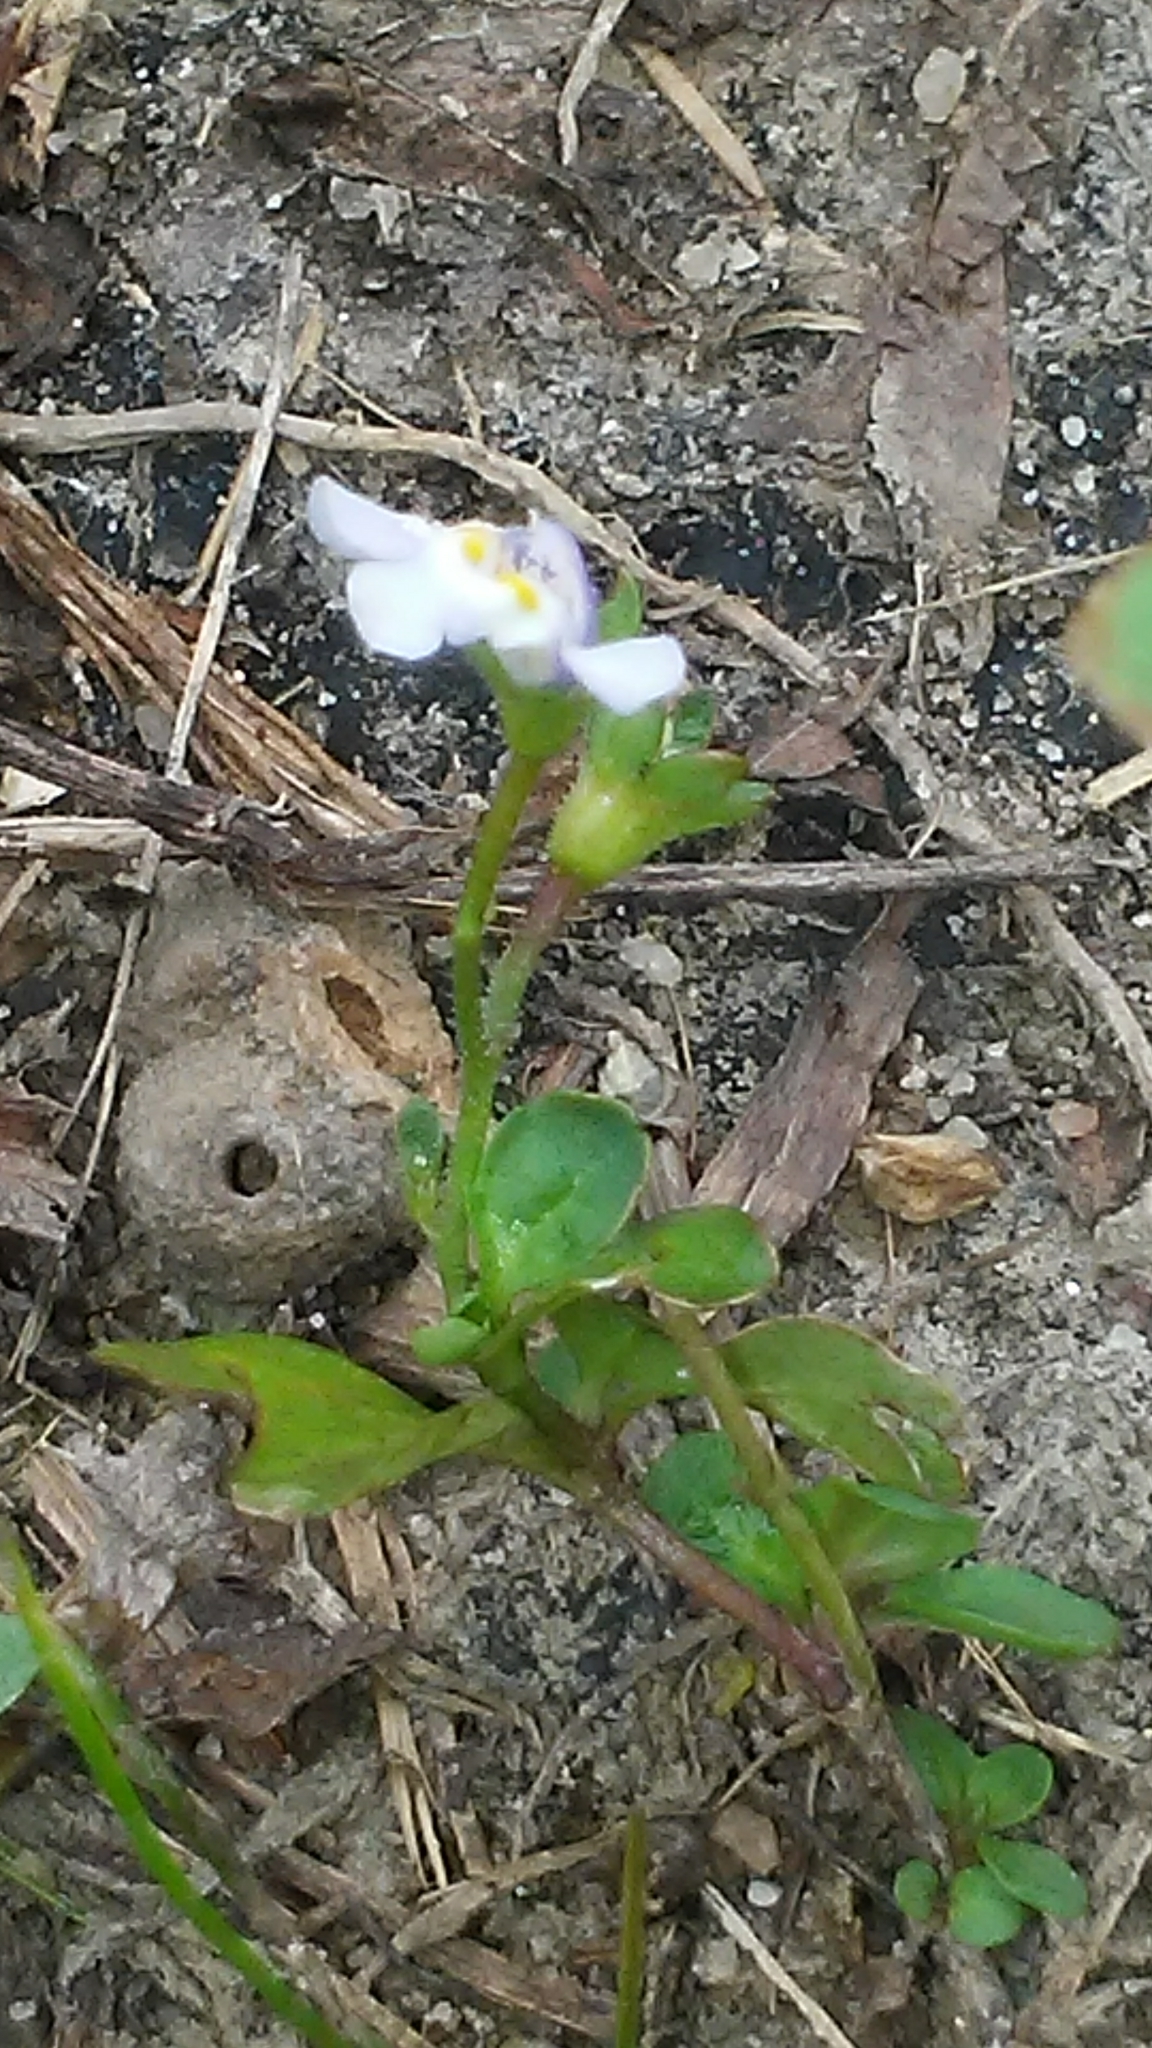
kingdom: Plantae
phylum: Tracheophyta
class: Magnoliopsida
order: Lamiales
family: Mazaceae
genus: Mazus
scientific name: Mazus pumilus
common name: Japanese mazus
